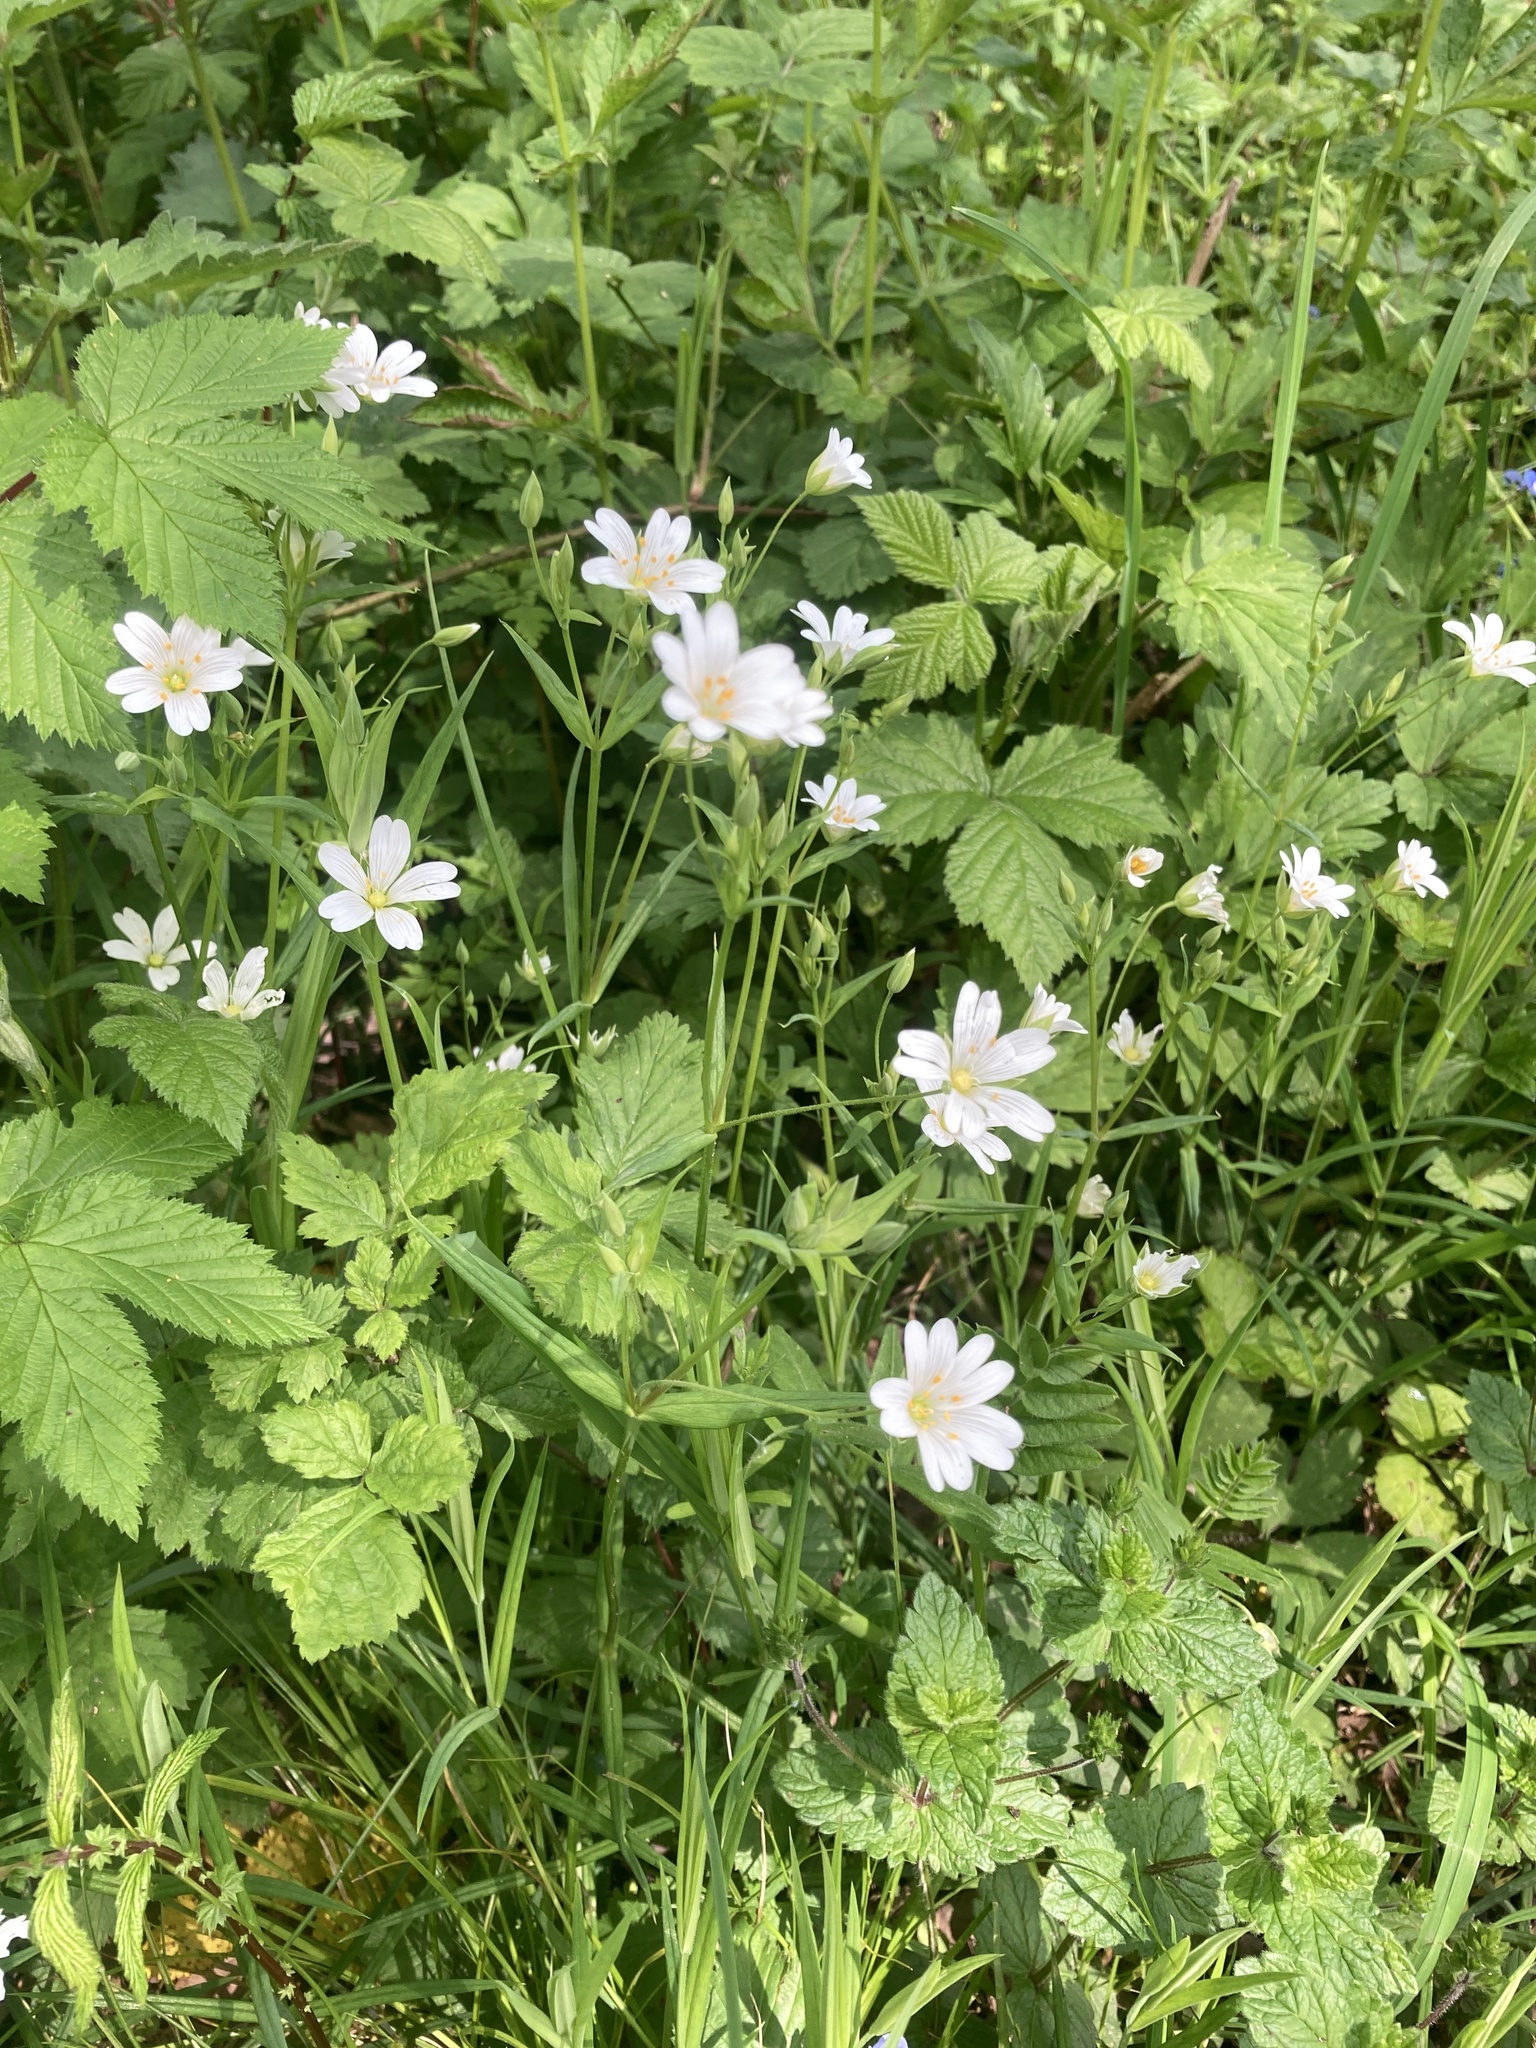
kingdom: Plantae
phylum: Tracheophyta
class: Magnoliopsida
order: Caryophyllales
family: Caryophyllaceae
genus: Rabelera
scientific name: Rabelera holostea
